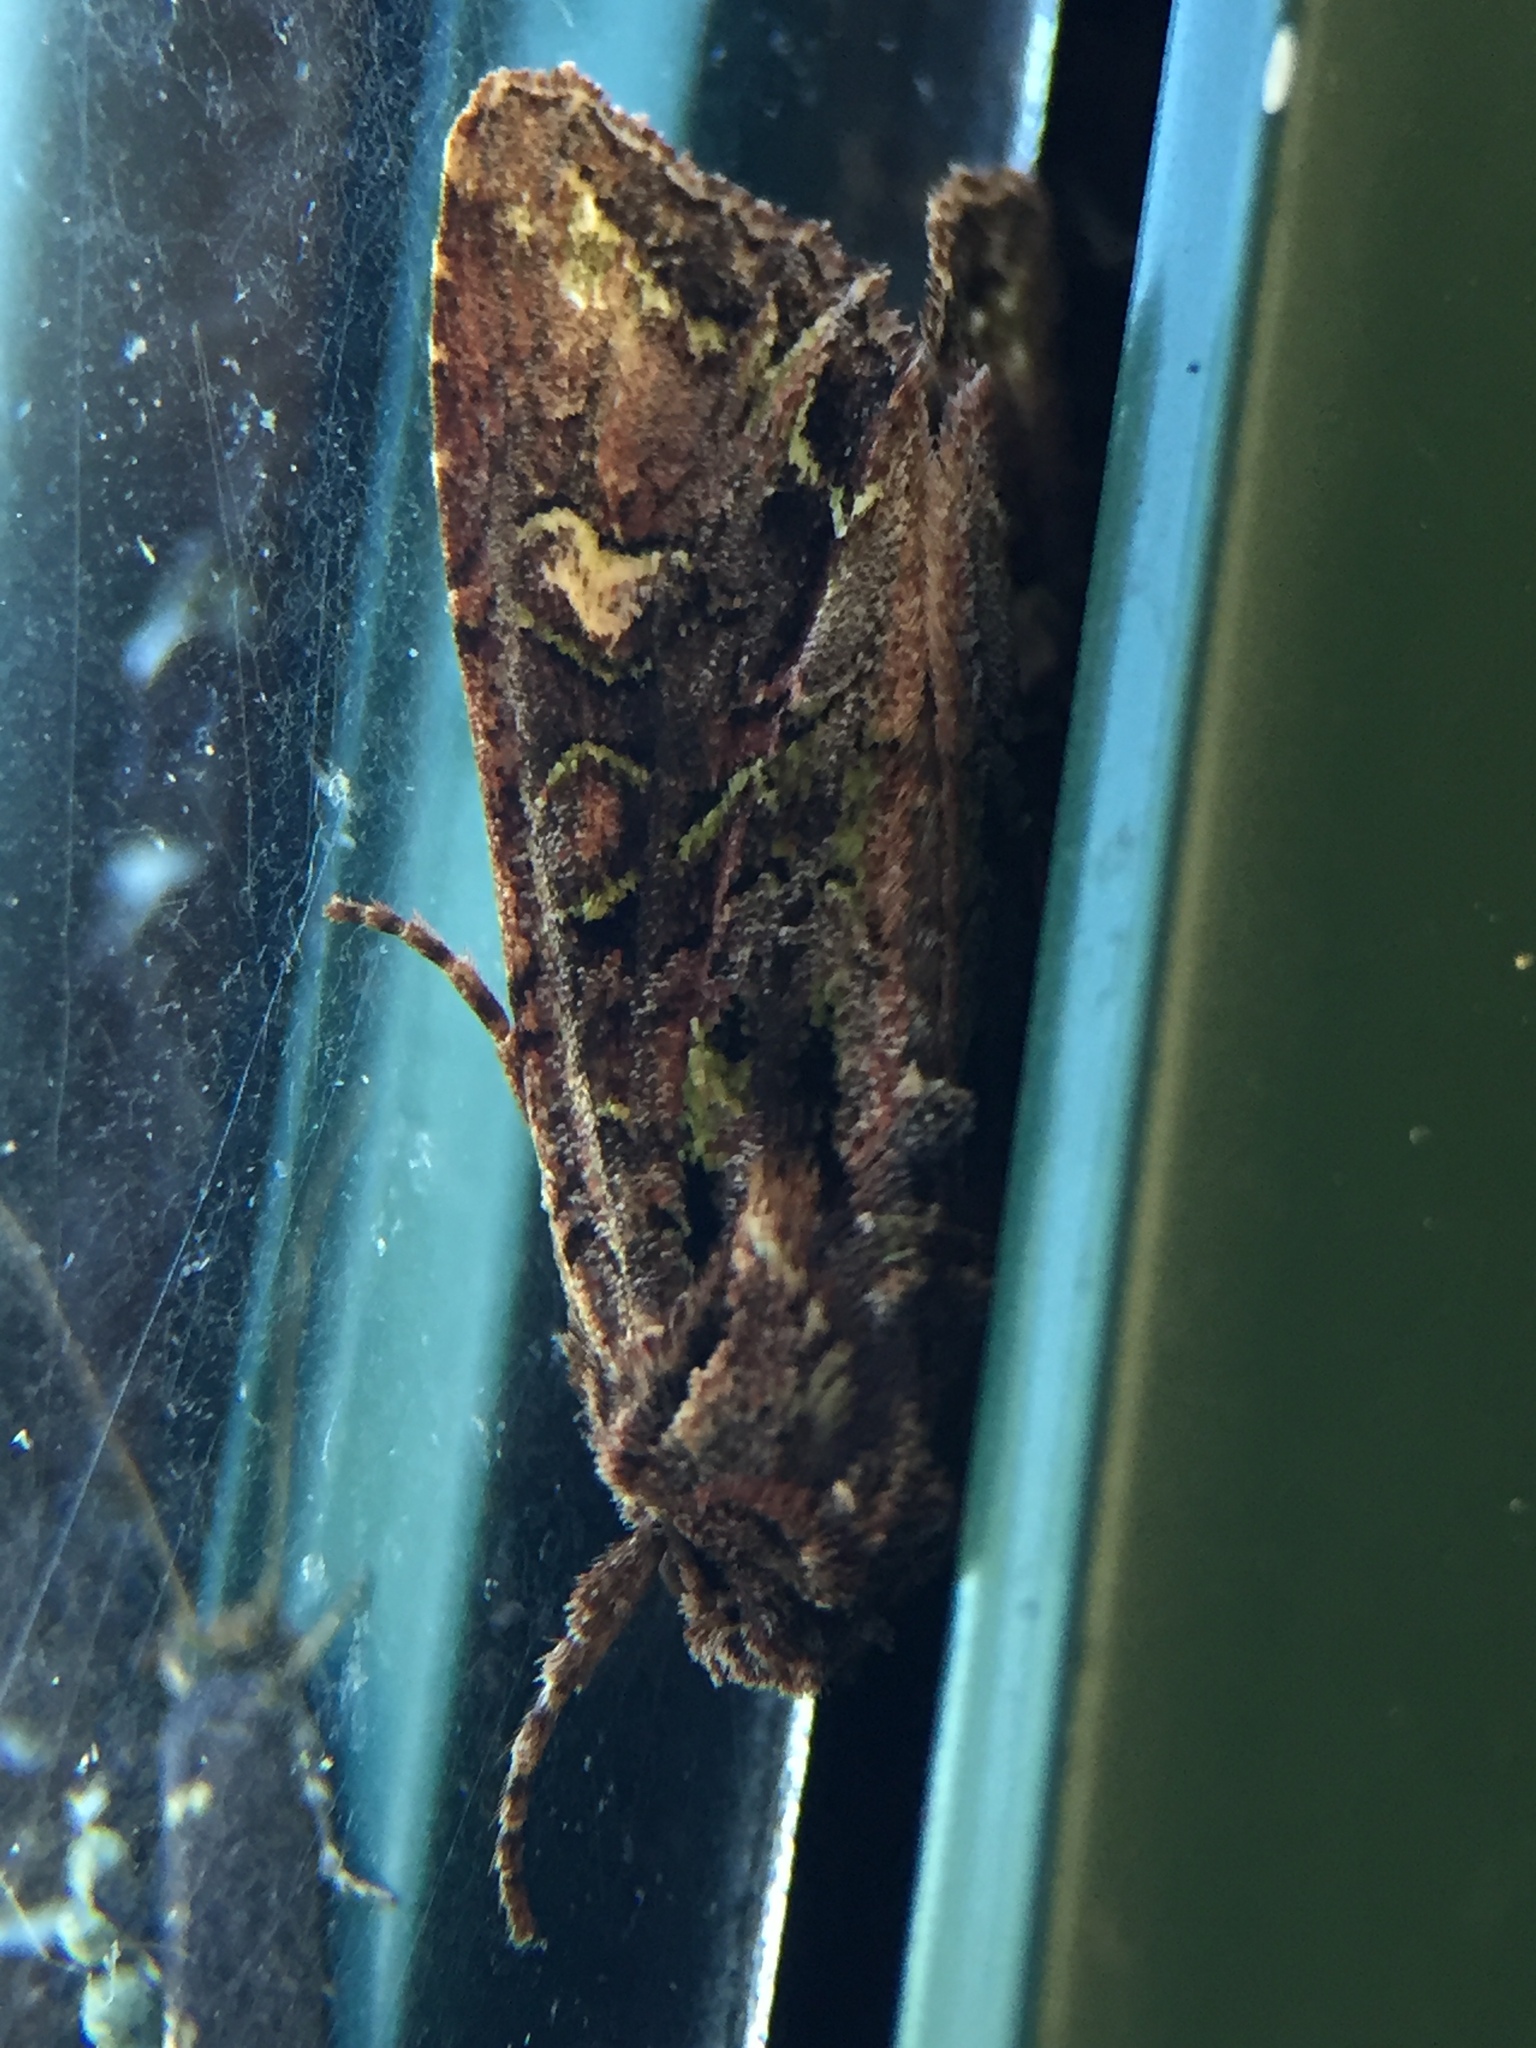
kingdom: Animalia
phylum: Arthropoda
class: Insecta
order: Lepidoptera
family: Noctuidae
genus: Ichneutica
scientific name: Ichneutica insignis
